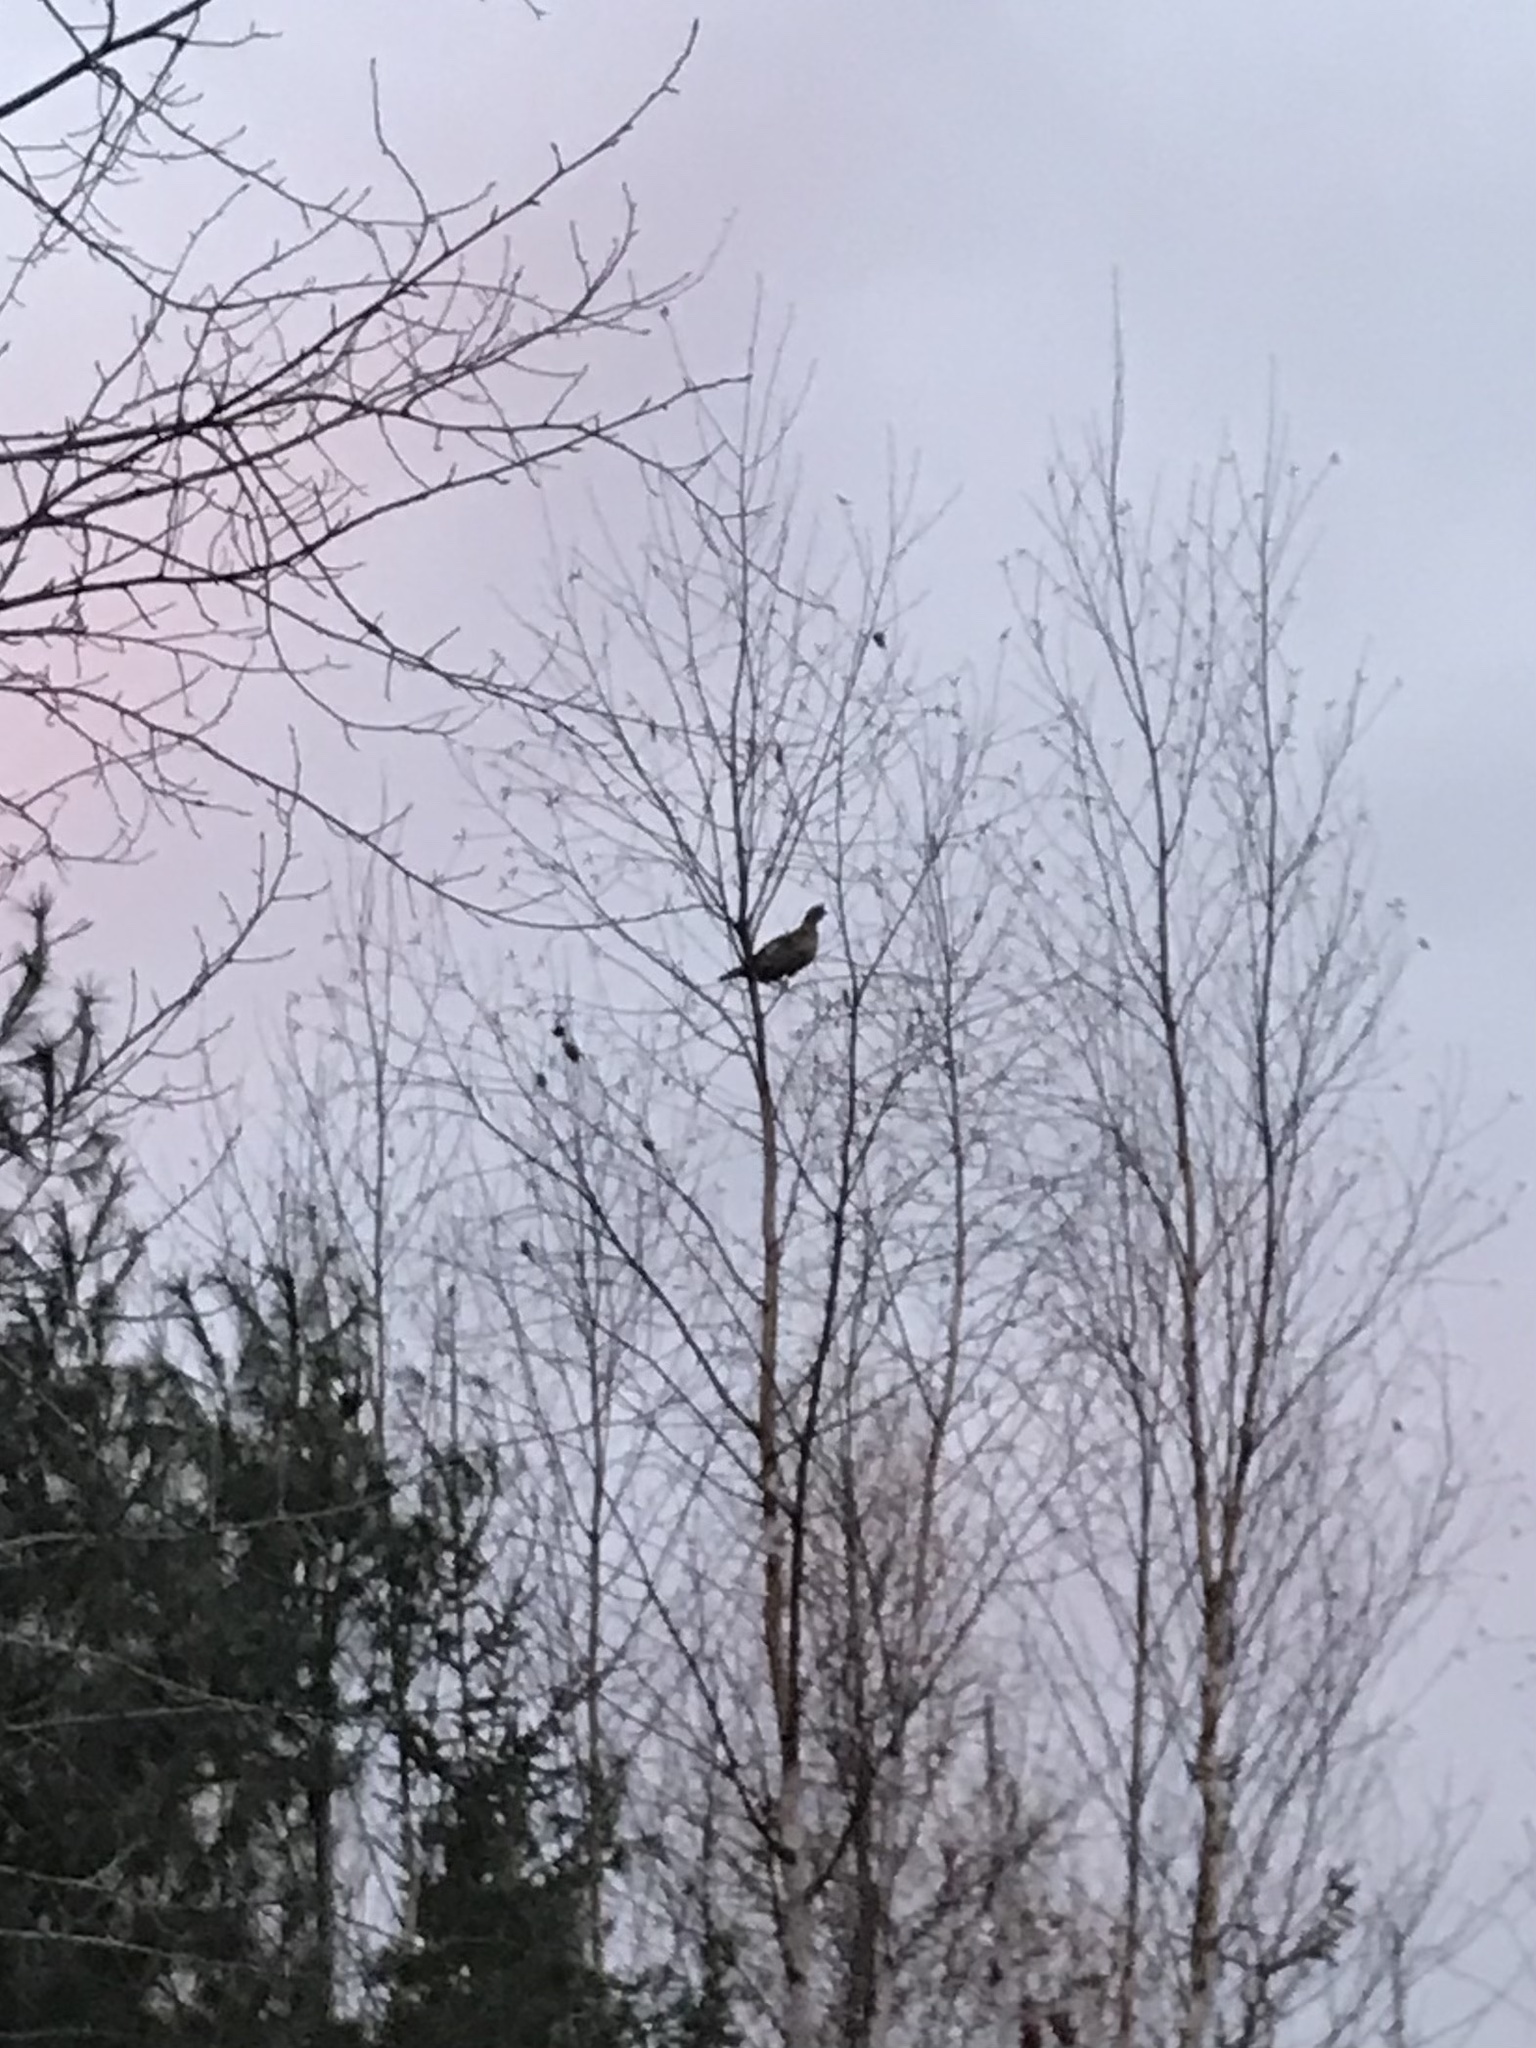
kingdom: Animalia
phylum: Chordata
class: Aves
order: Galliformes
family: Phasianidae
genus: Bonasa
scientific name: Bonasa umbellus
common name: Ruffed grouse
